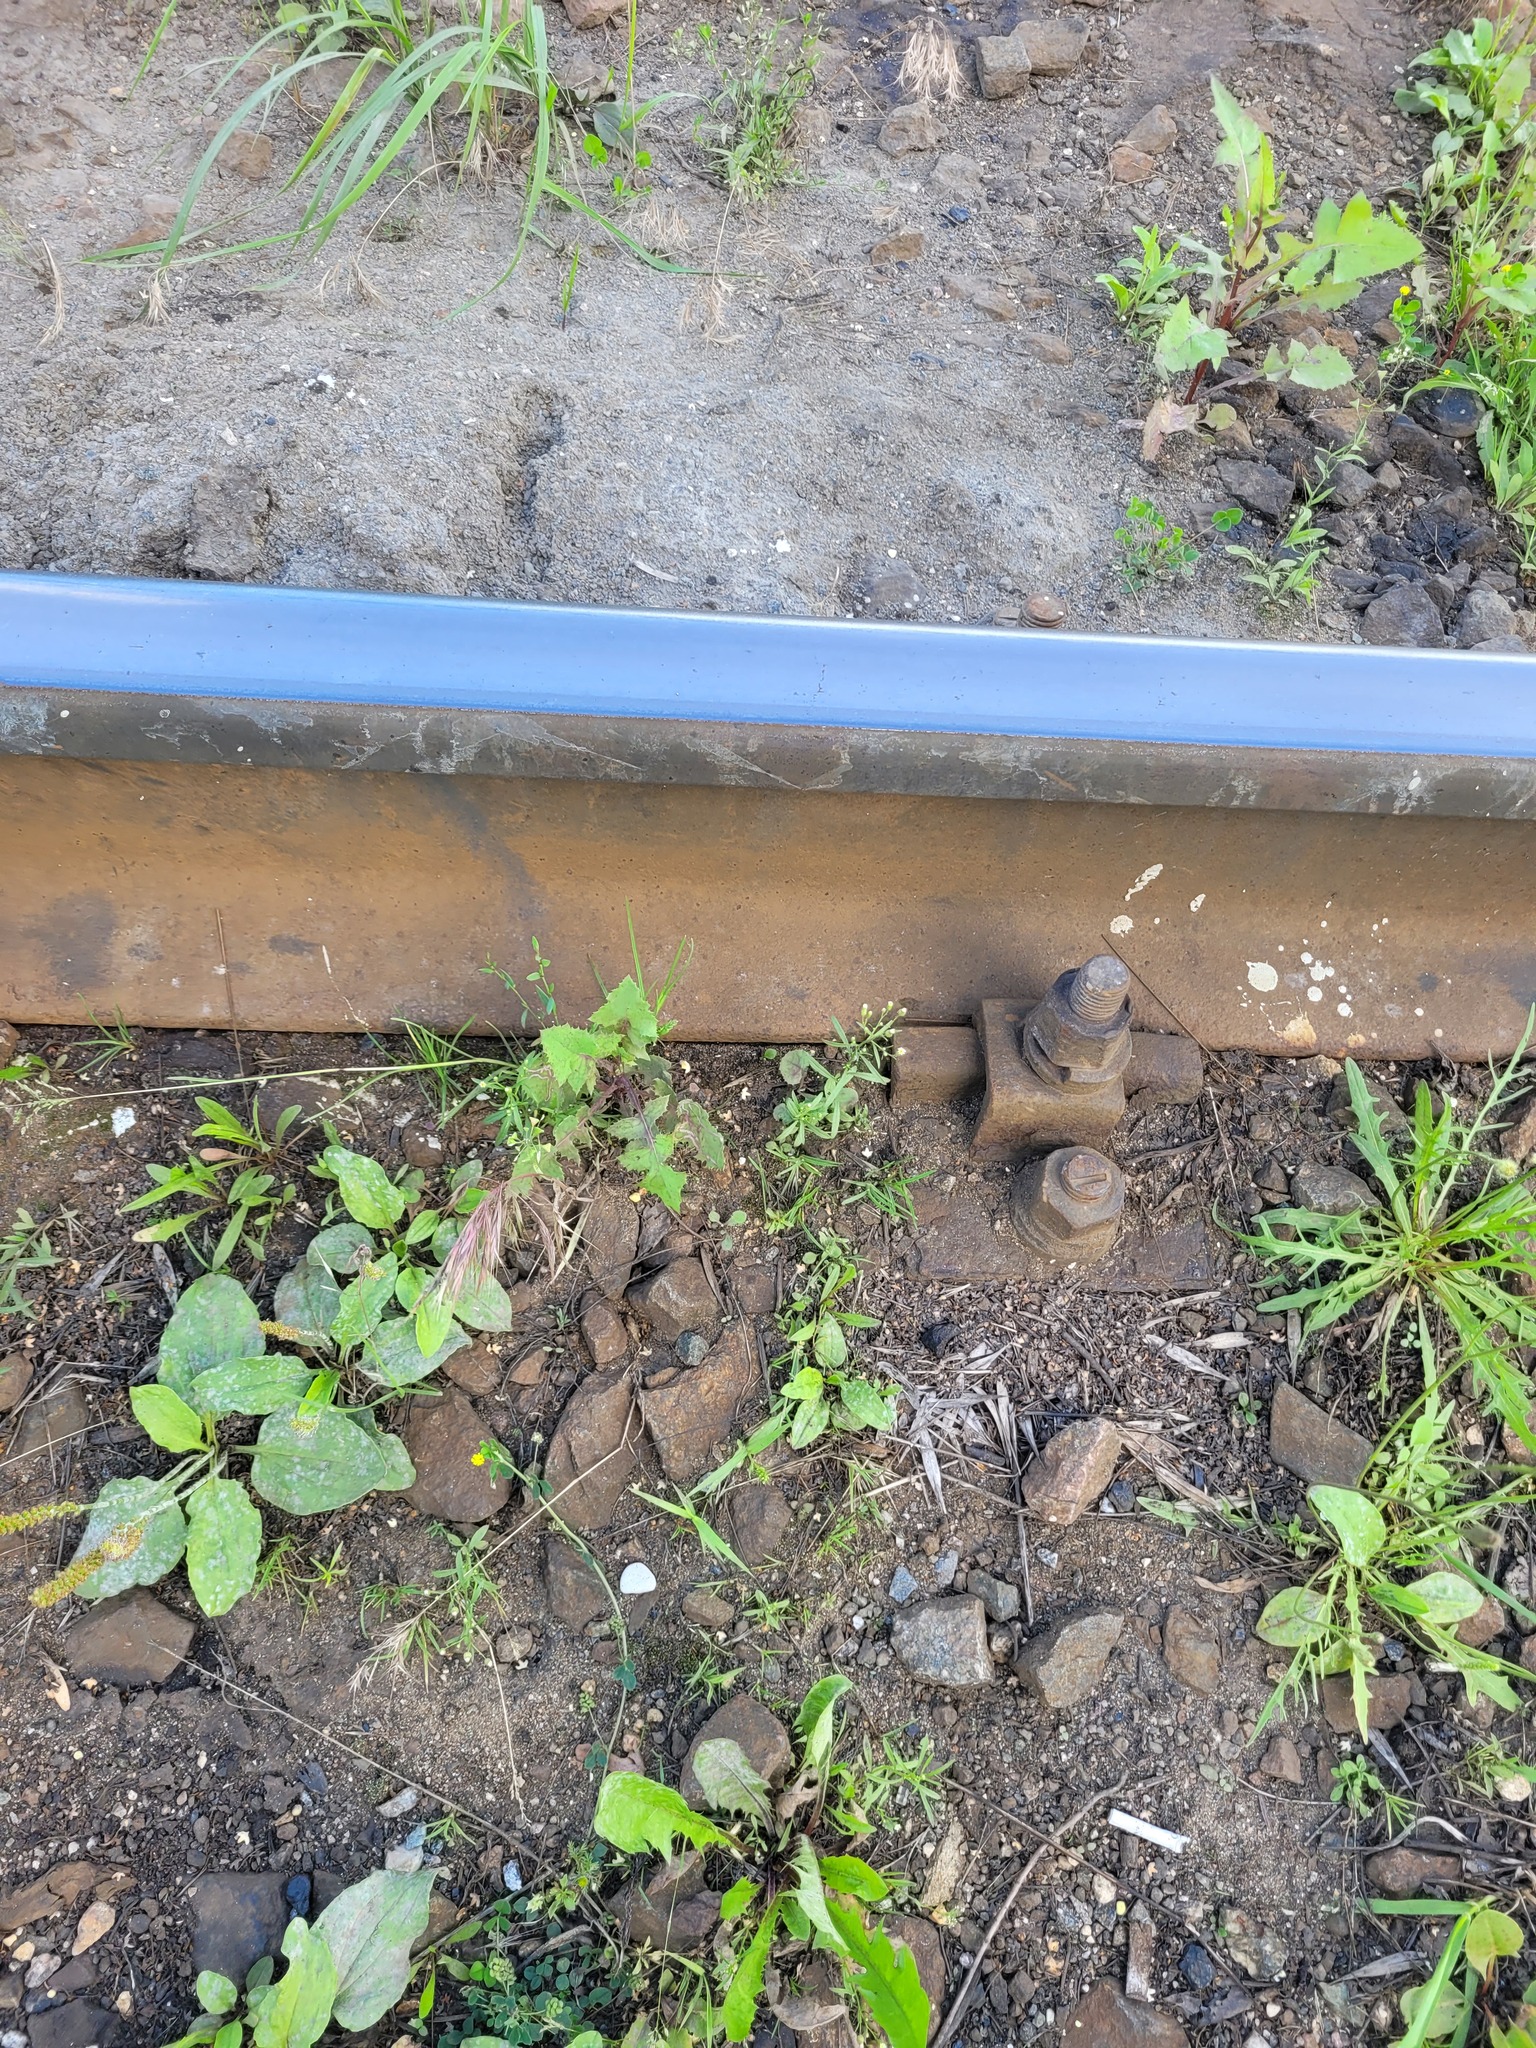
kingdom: Plantae
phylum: Tracheophyta
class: Magnoliopsida
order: Asterales
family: Asteraceae
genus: Sonchus
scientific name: Sonchus oleraceus
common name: Common sowthistle
